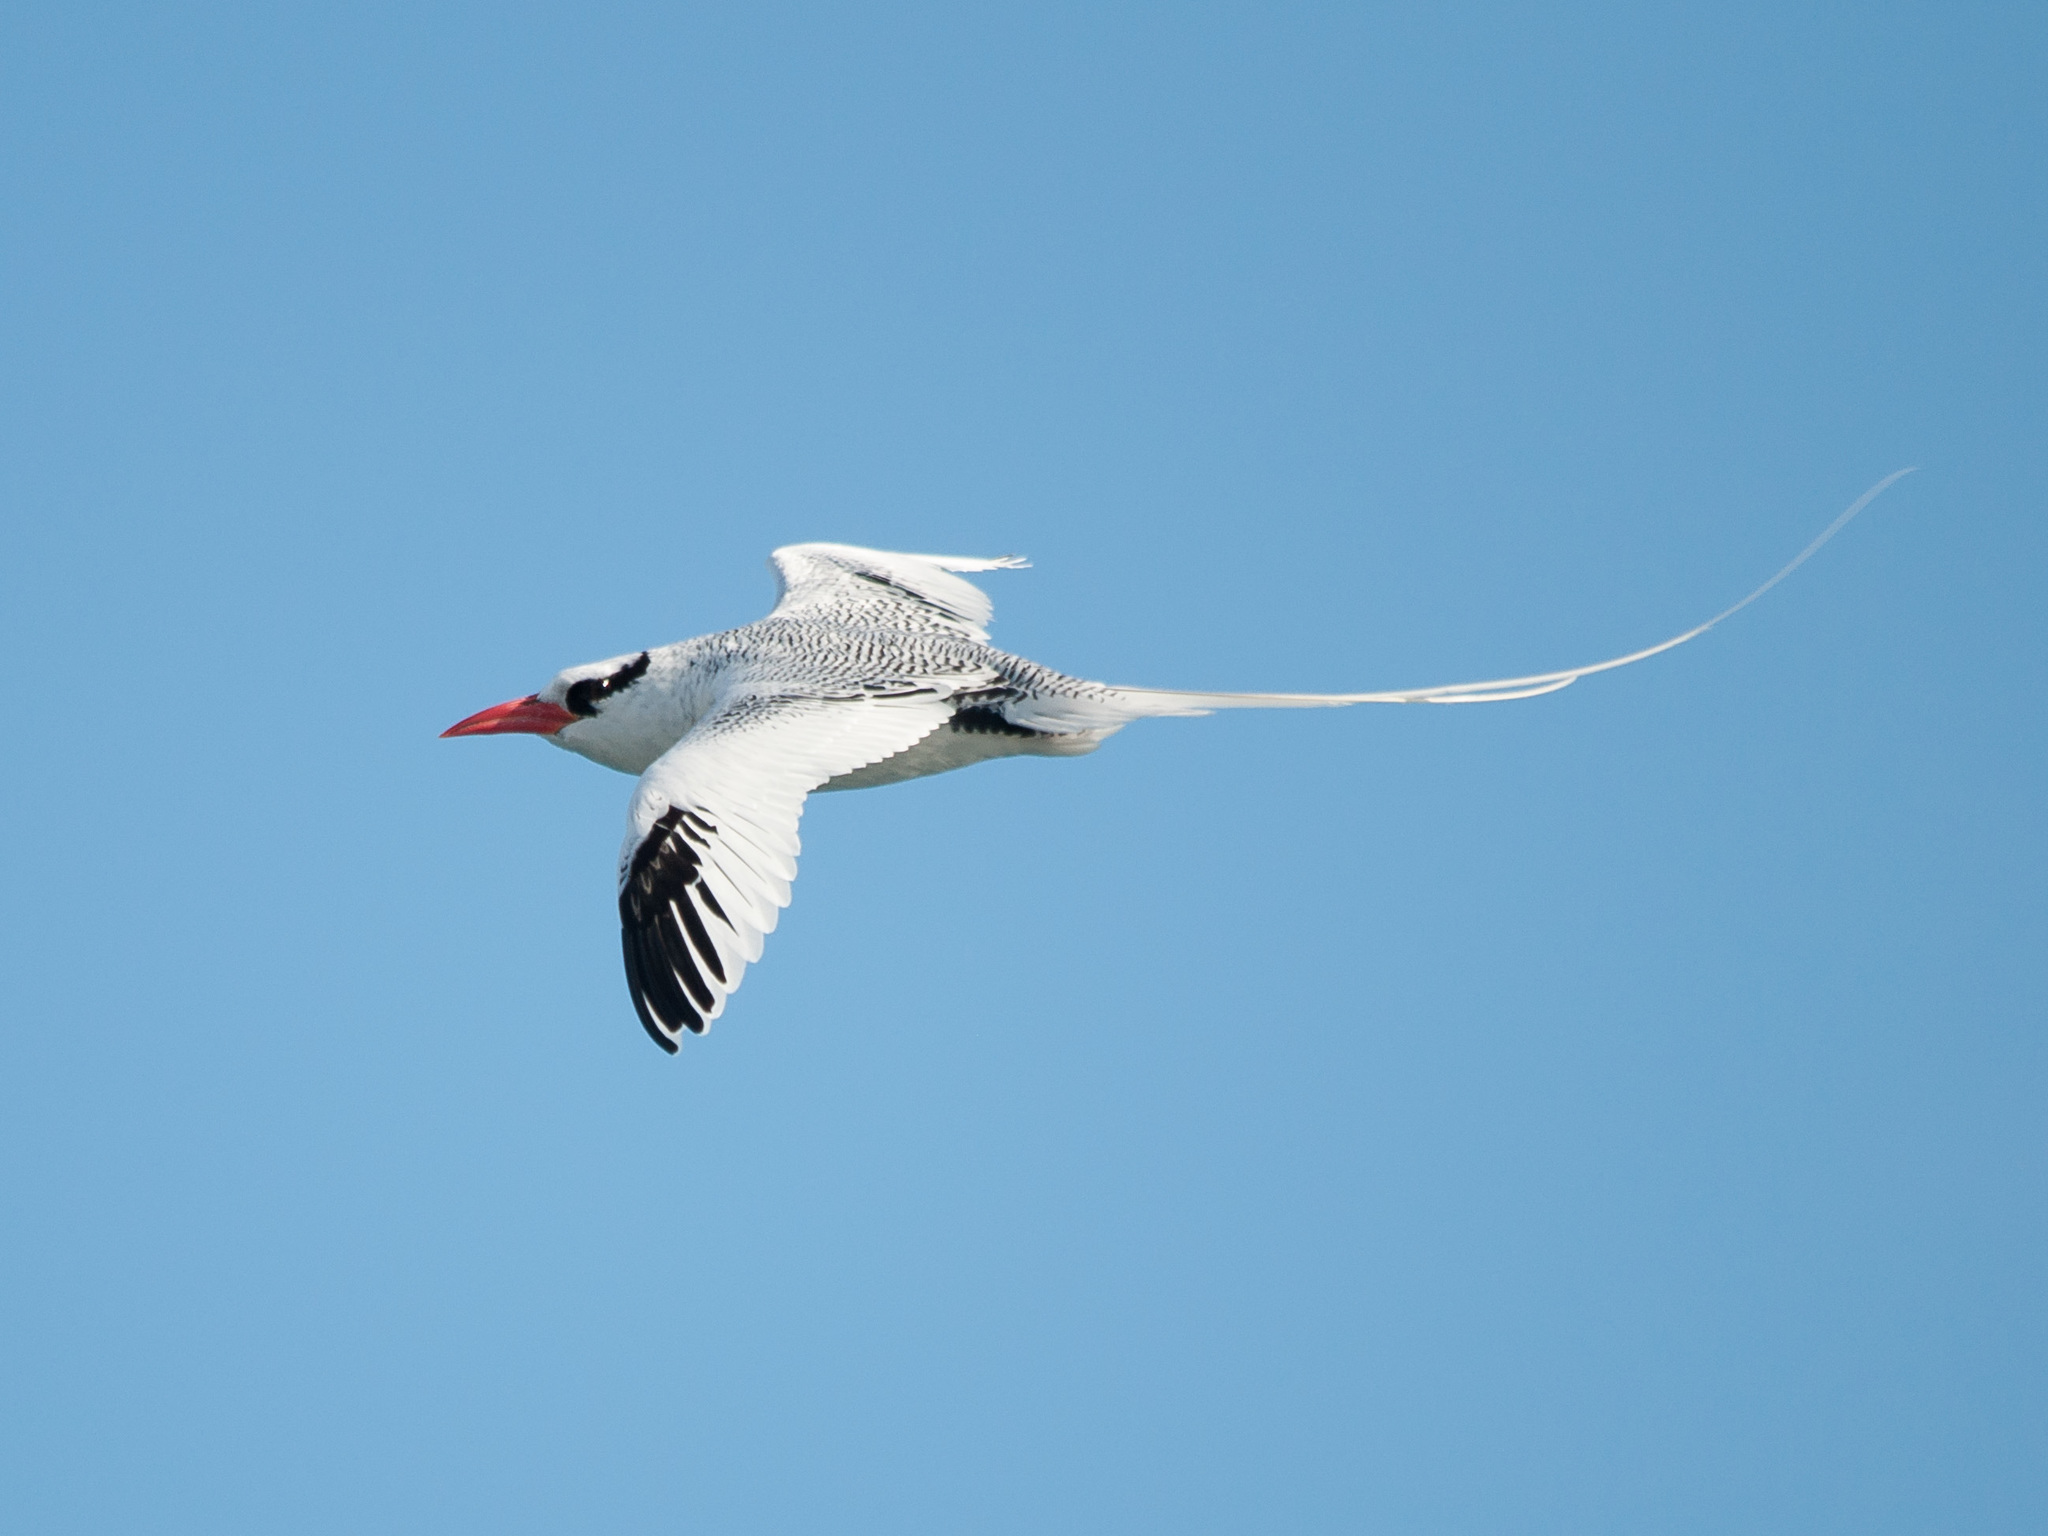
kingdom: Animalia
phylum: Chordata
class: Aves
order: Phaethontiformes
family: Phaethontidae
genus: Phaethon
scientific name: Phaethon aethereus
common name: Red-billed tropicbird
